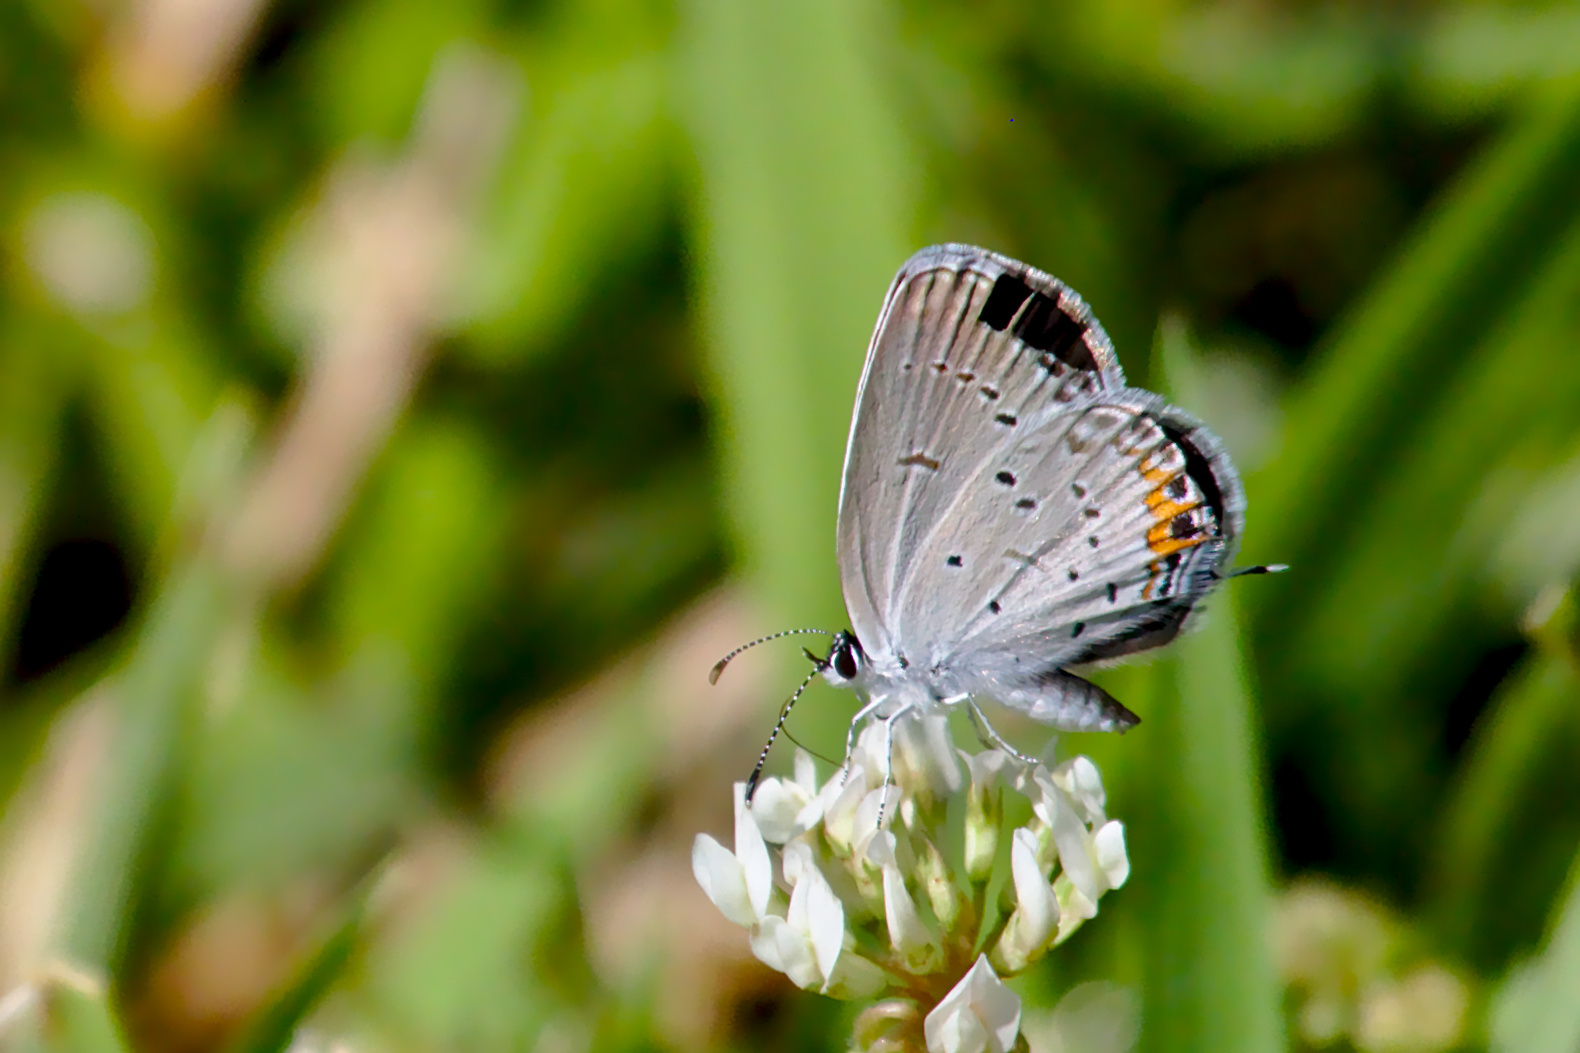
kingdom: Animalia
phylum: Arthropoda
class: Insecta
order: Lepidoptera
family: Lycaenidae
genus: Elkalyce
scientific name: Elkalyce comyntas
